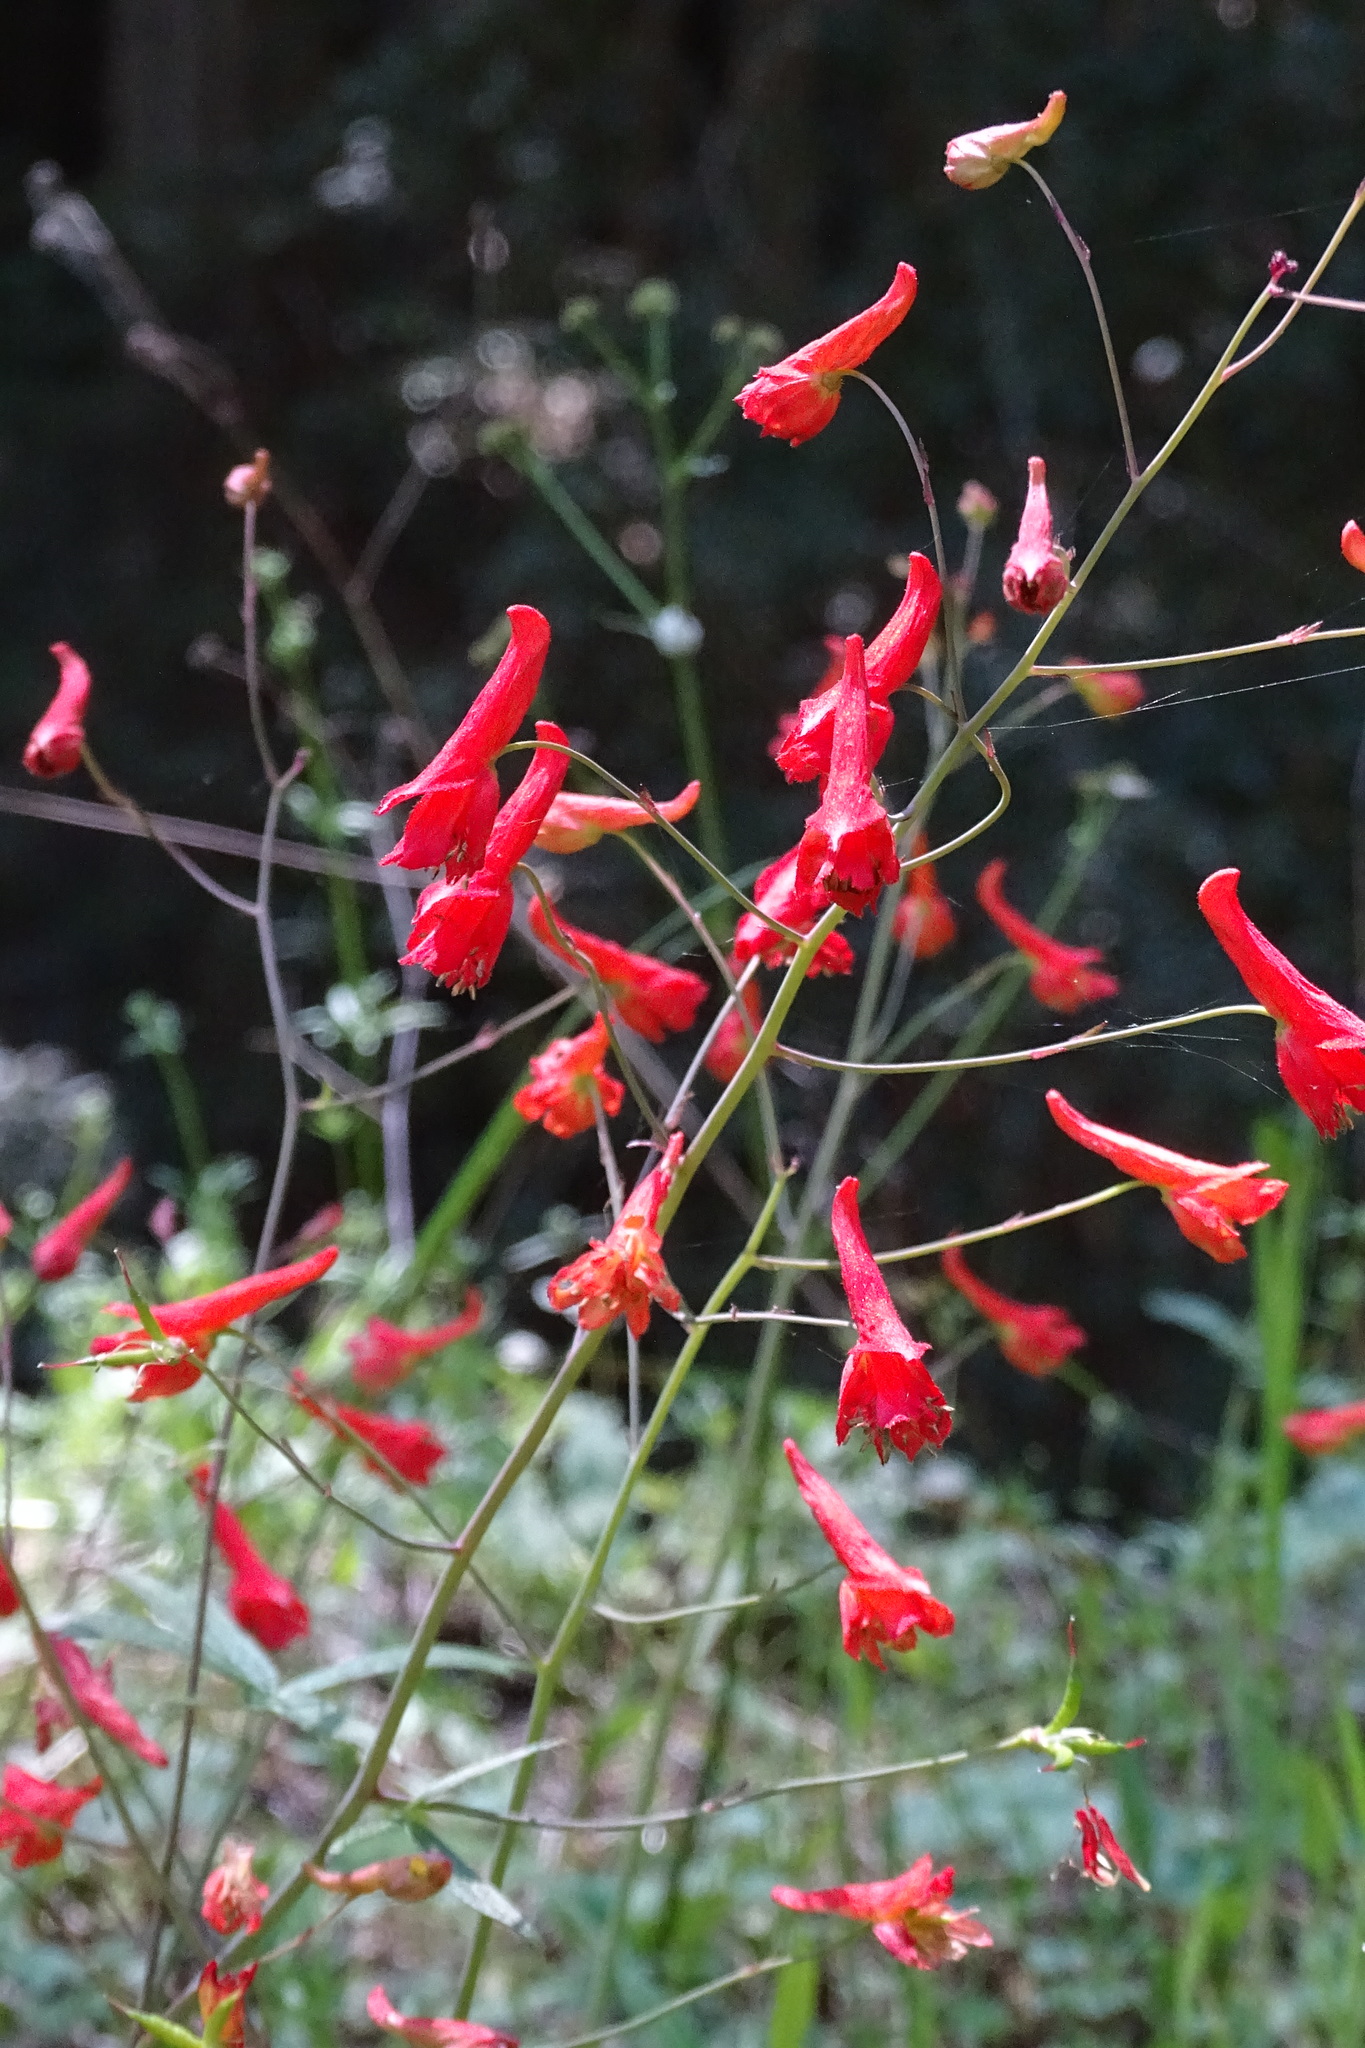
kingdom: Plantae
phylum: Tracheophyta
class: Magnoliopsida
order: Ranunculales
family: Ranunculaceae
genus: Delphinium
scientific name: Delphinium nudicaule
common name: Red larkspur
